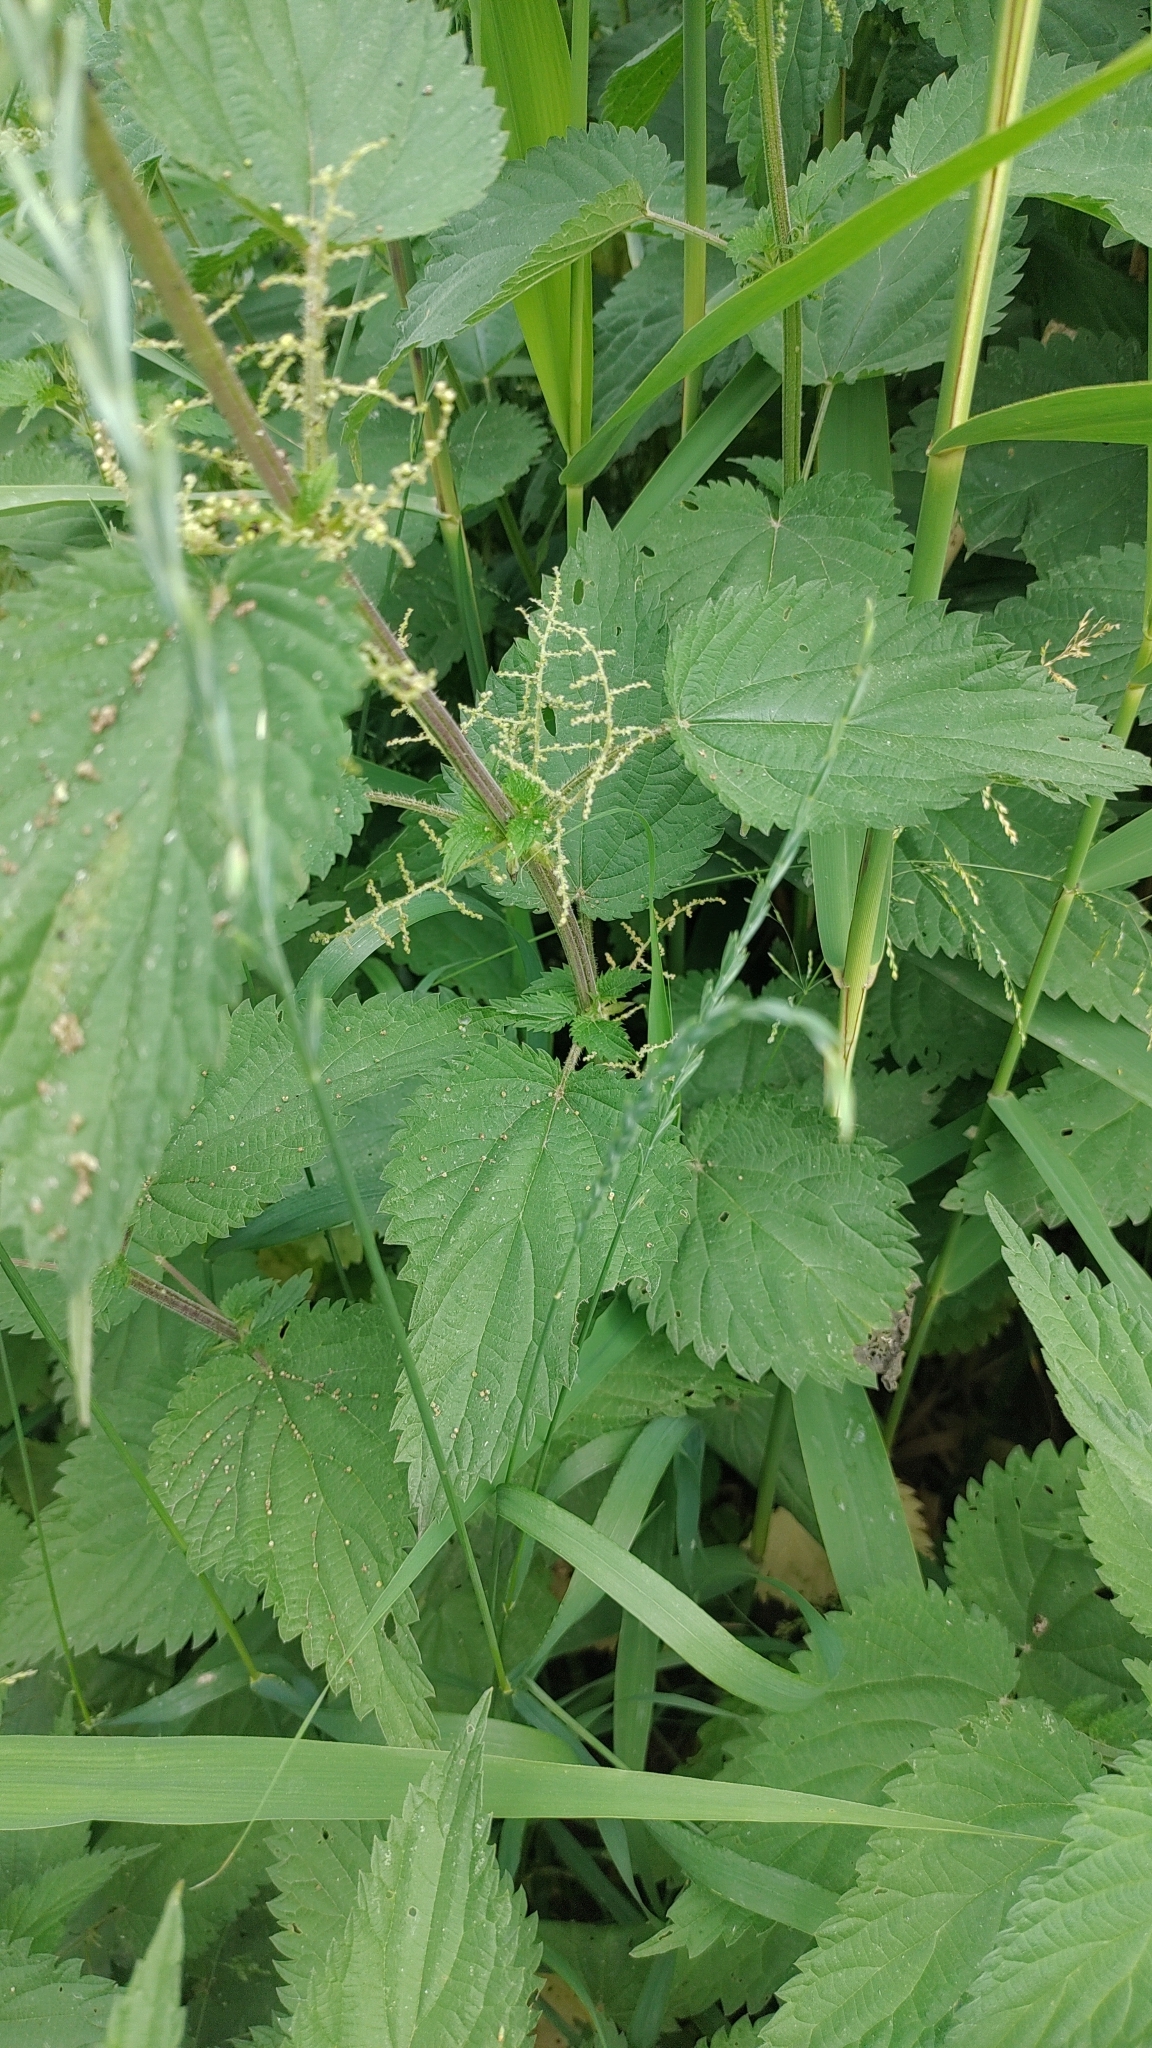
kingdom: Plantae
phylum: Tracheophyta
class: Magnoliopsida
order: Rosales
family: Urticaceae
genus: Urtica
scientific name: Urtica dioica
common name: Common nettle
